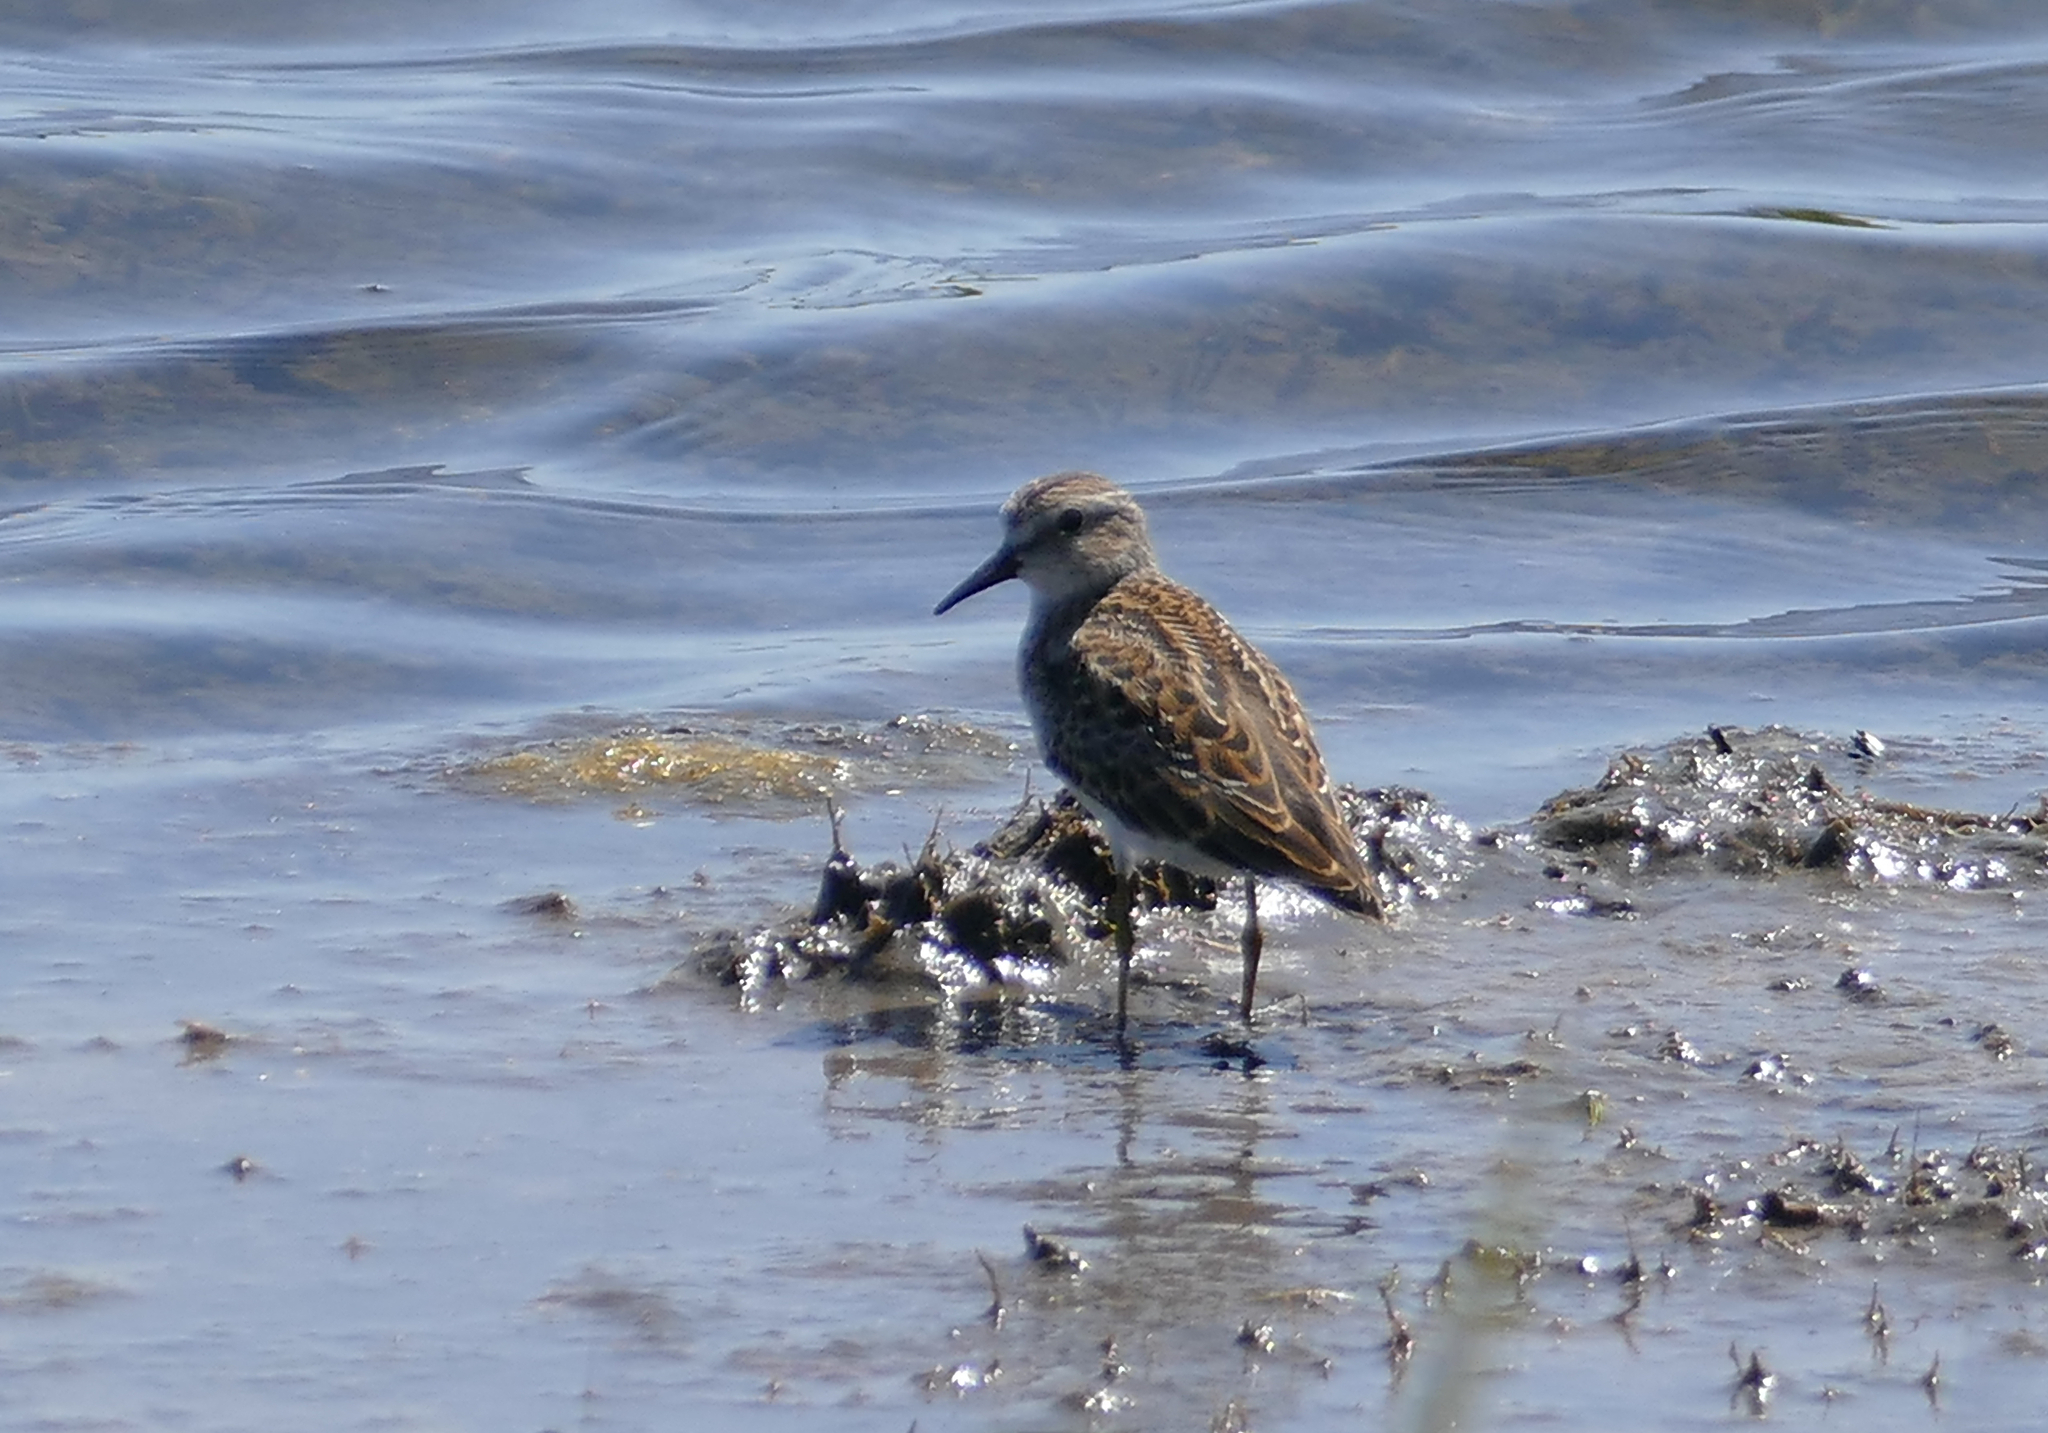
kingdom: Animalia
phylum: Chordata
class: Aves
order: Charadriiformes
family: Scolopacidae
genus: Calidris
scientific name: Calidris minutilla
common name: Least sandpiper
